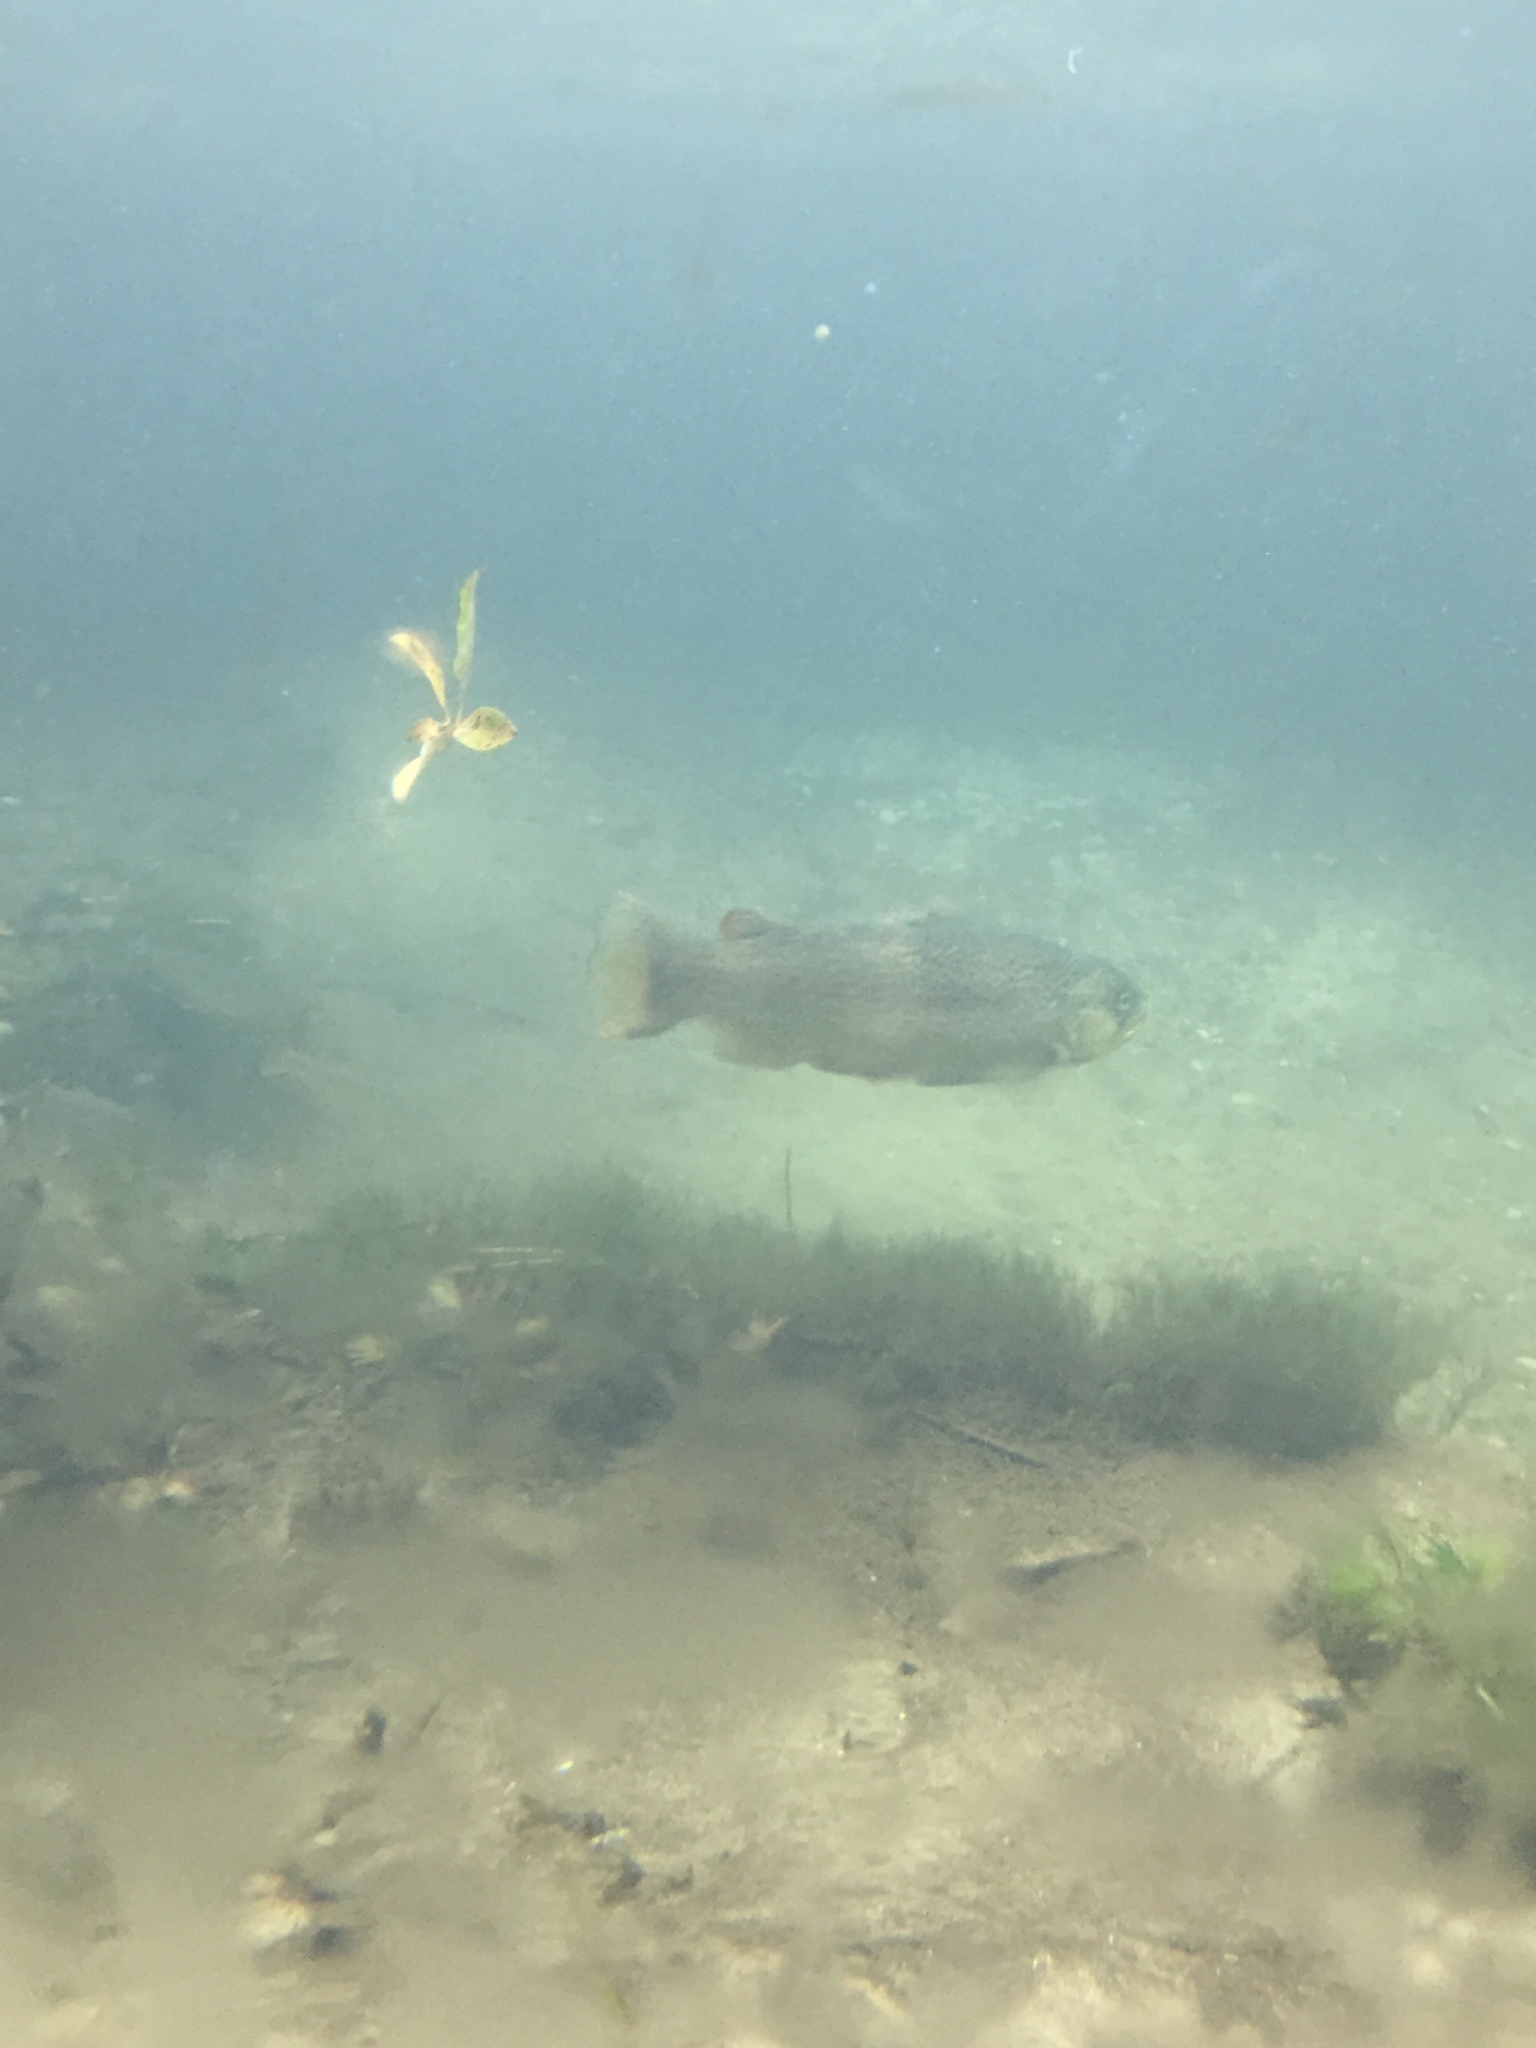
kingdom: Animalia
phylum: Chordata
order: Salmoniformes
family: Salmonidae
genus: Oncorhynchus
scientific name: Oncorhynchus mykiss
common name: Rainbow trout
